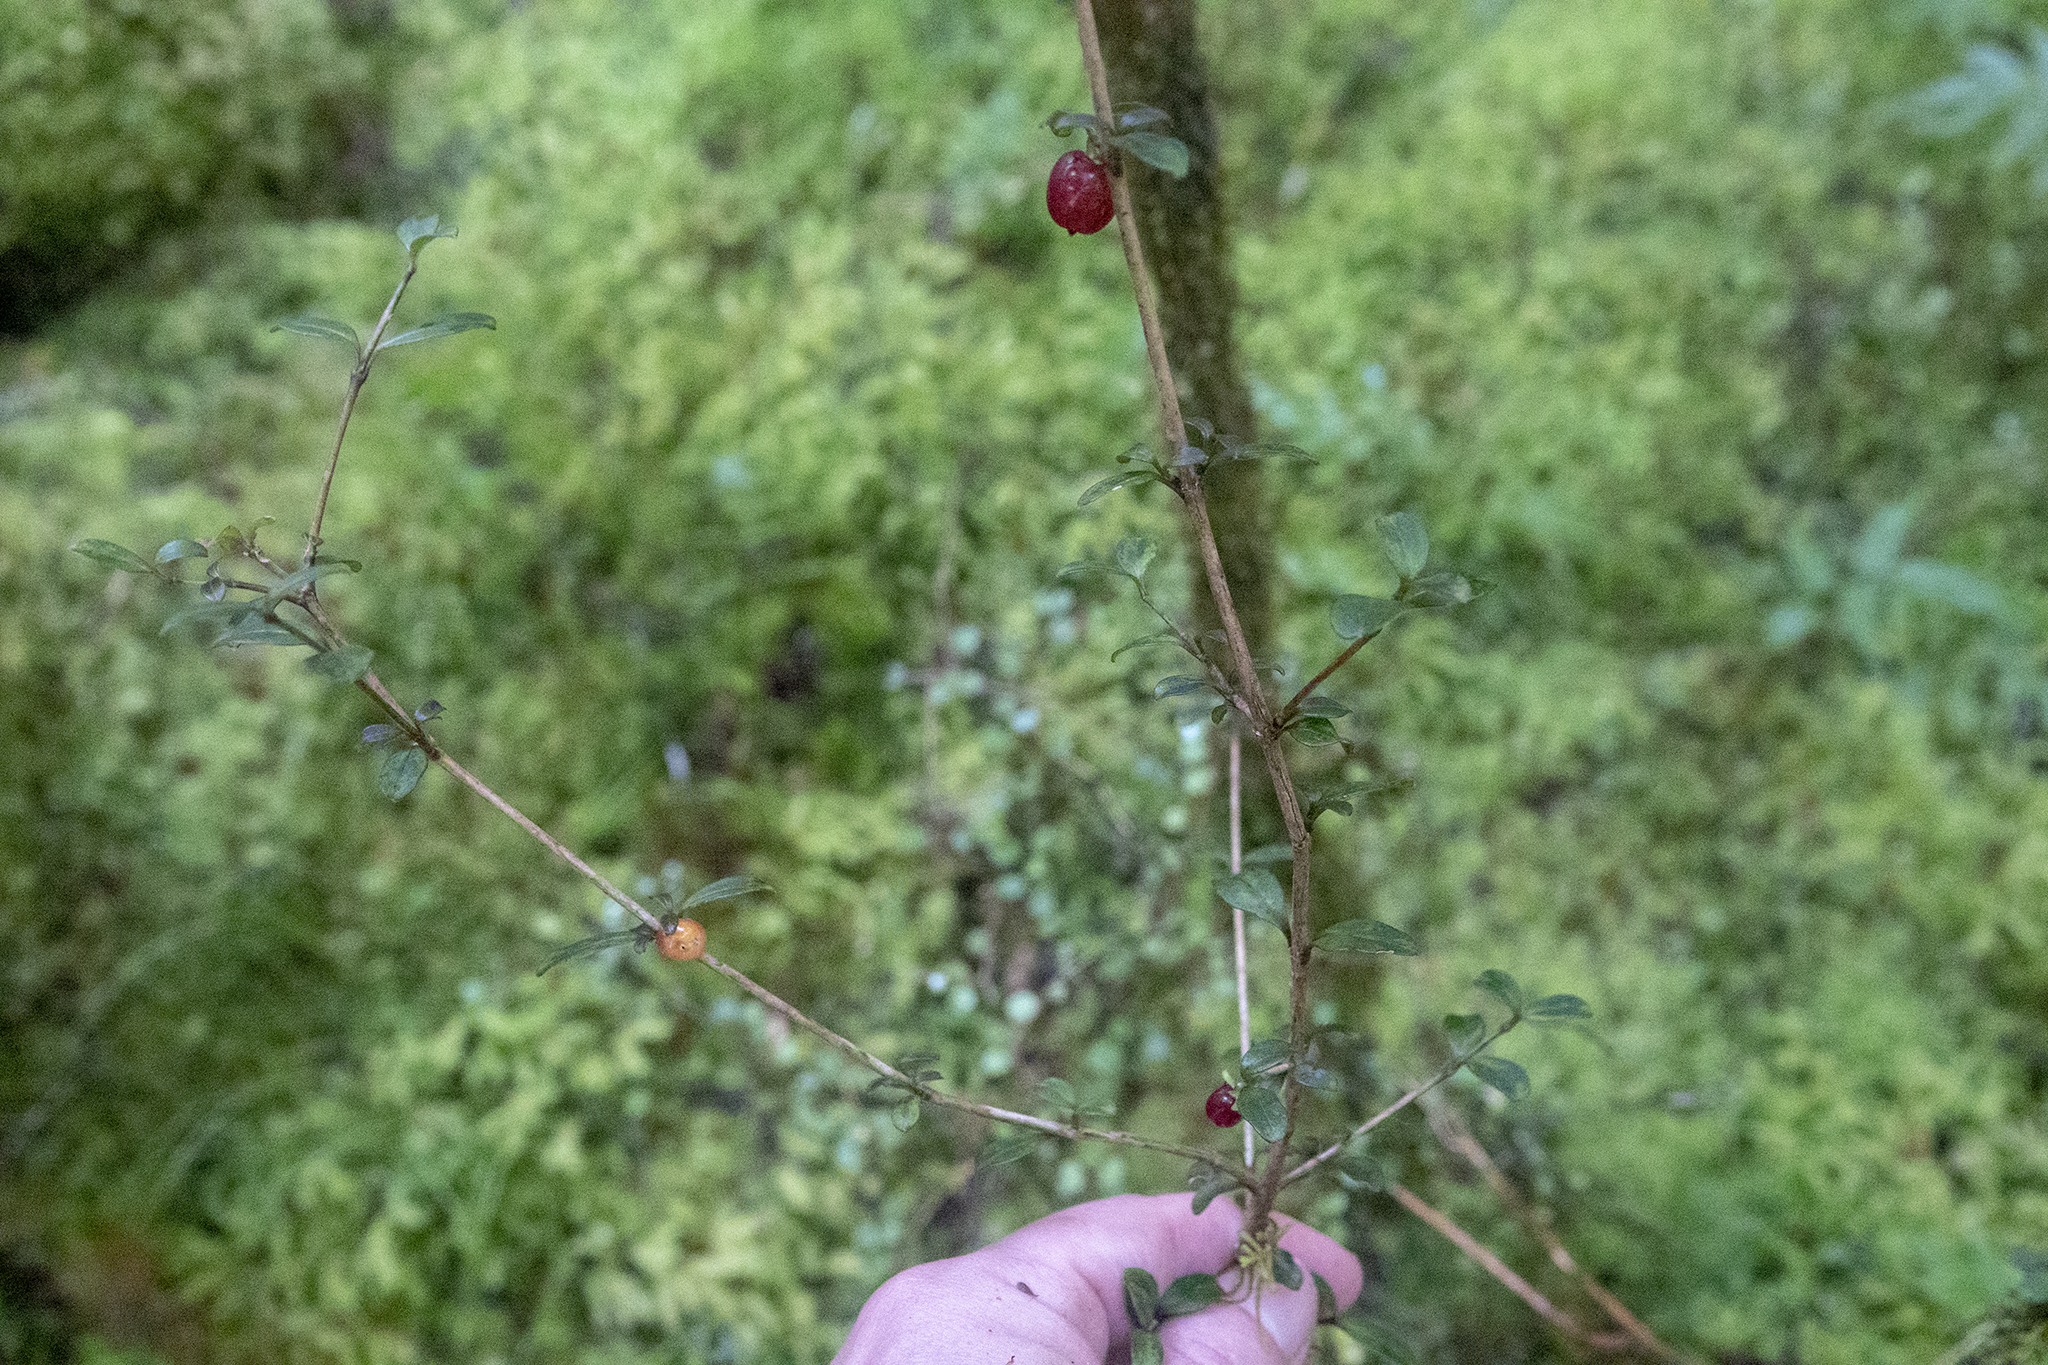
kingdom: Plantae
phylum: Tracheophyta
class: Magnoliopsida
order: Gentianales
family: Rubiaceae
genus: Coprosma
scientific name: Coprosma rhamnoides
